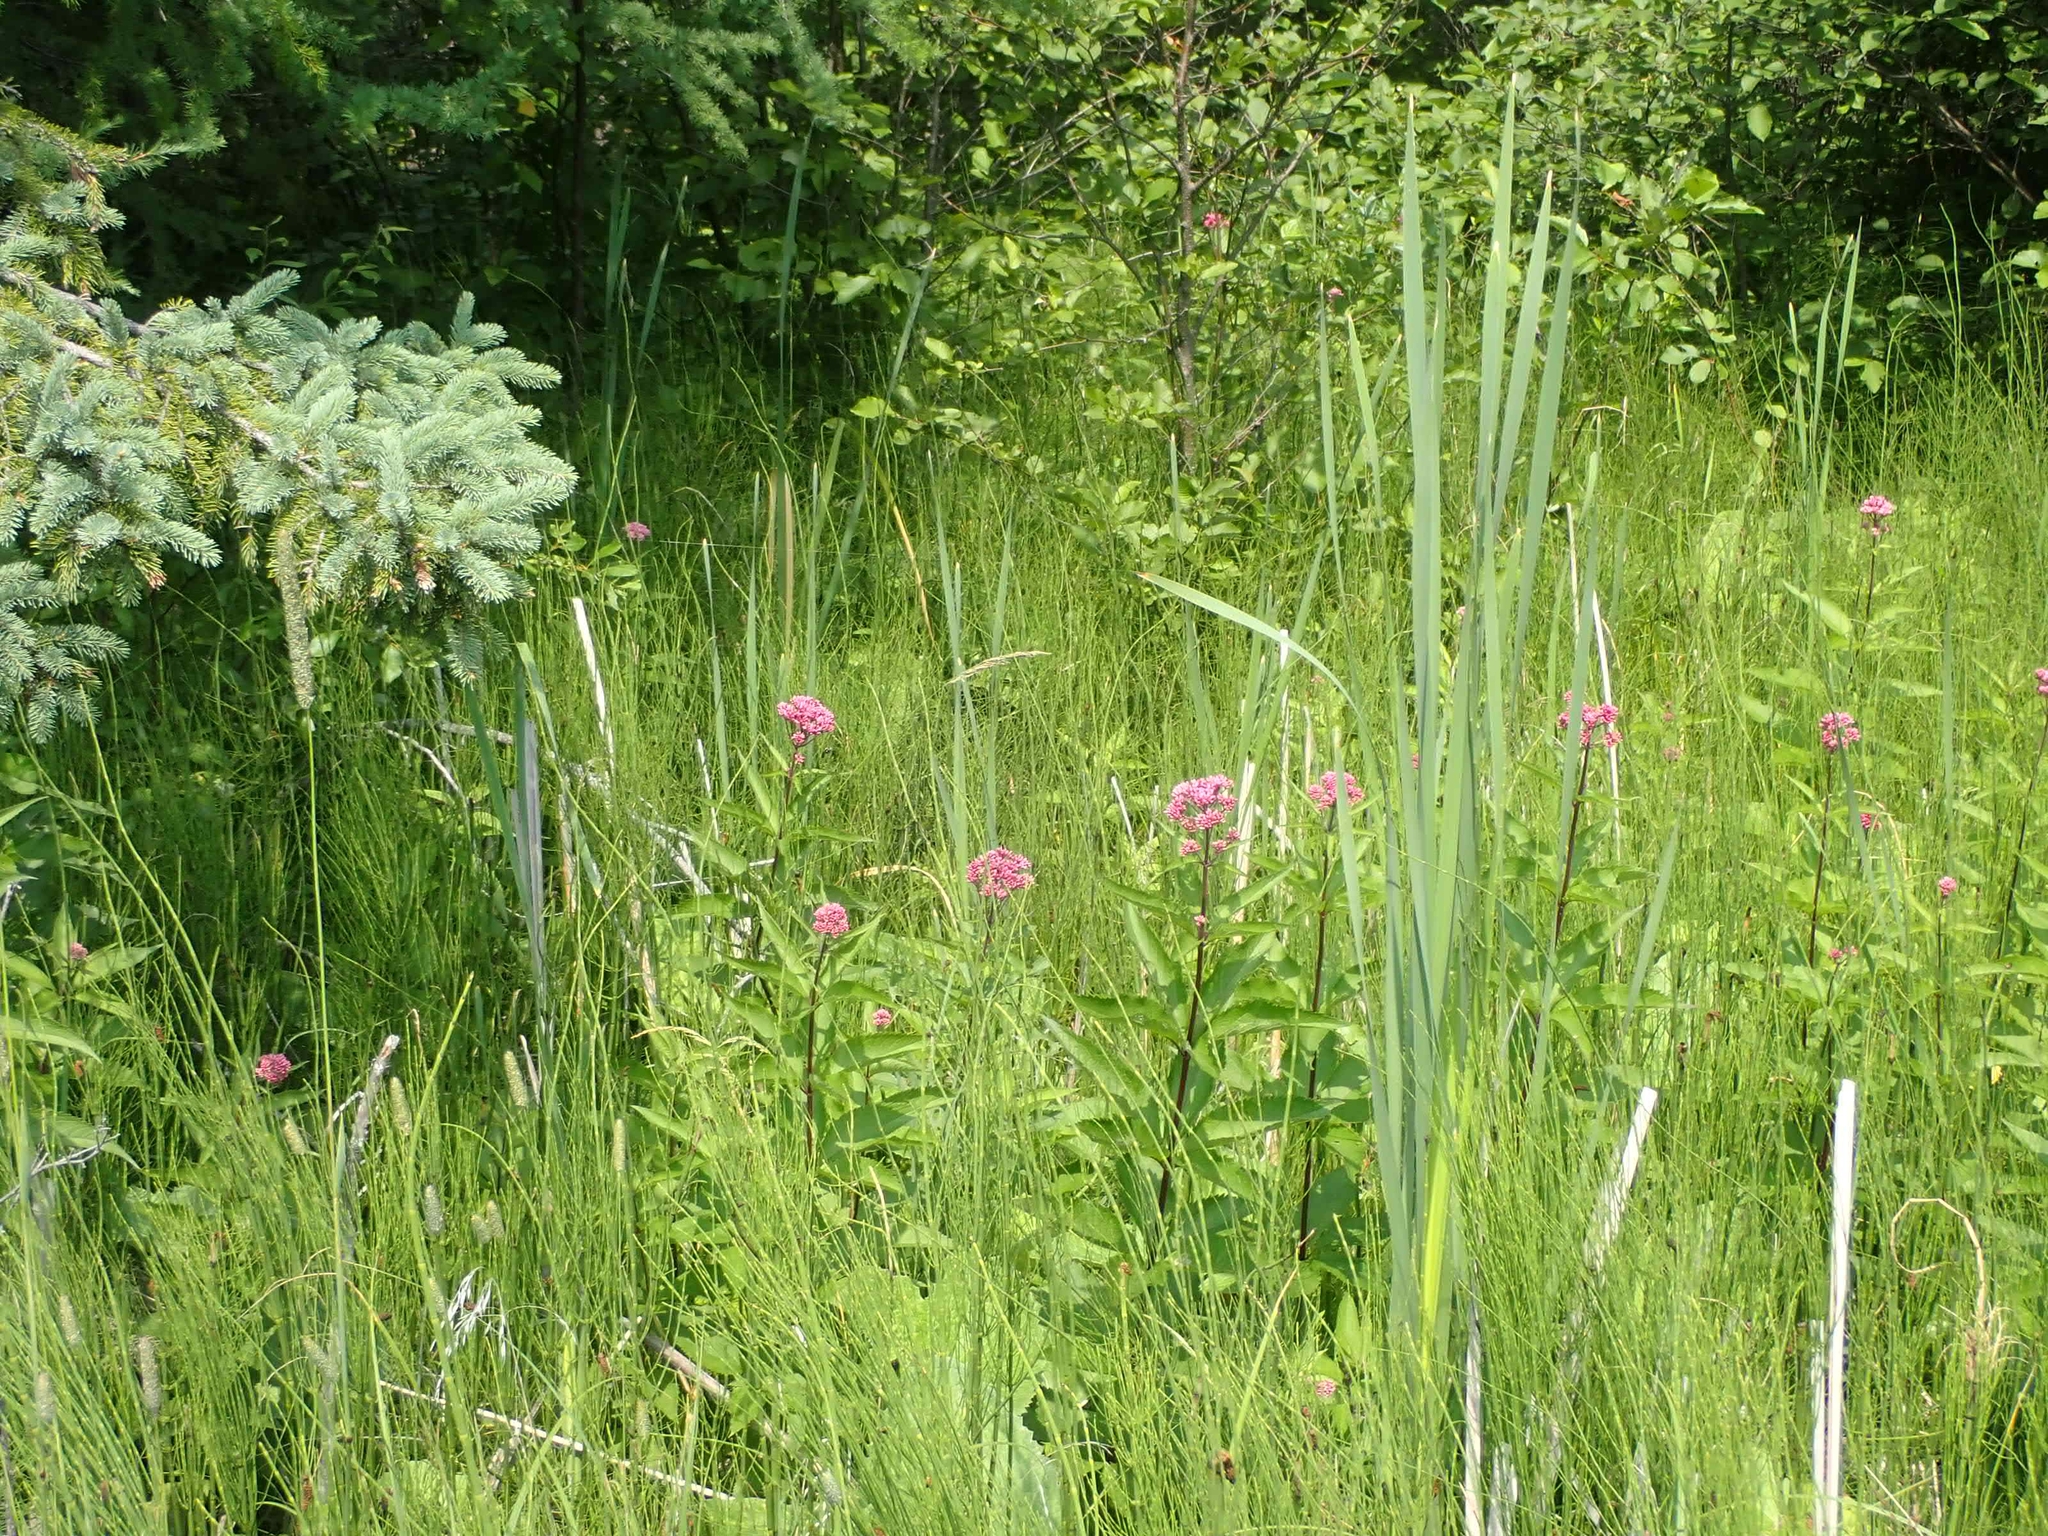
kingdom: Plantae
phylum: Tracheophyta
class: Magnoliopsida
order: Asterales
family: Asteraceae
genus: Eutrochium
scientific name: Eutrochium maculatum
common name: Spotted joe pye weed
